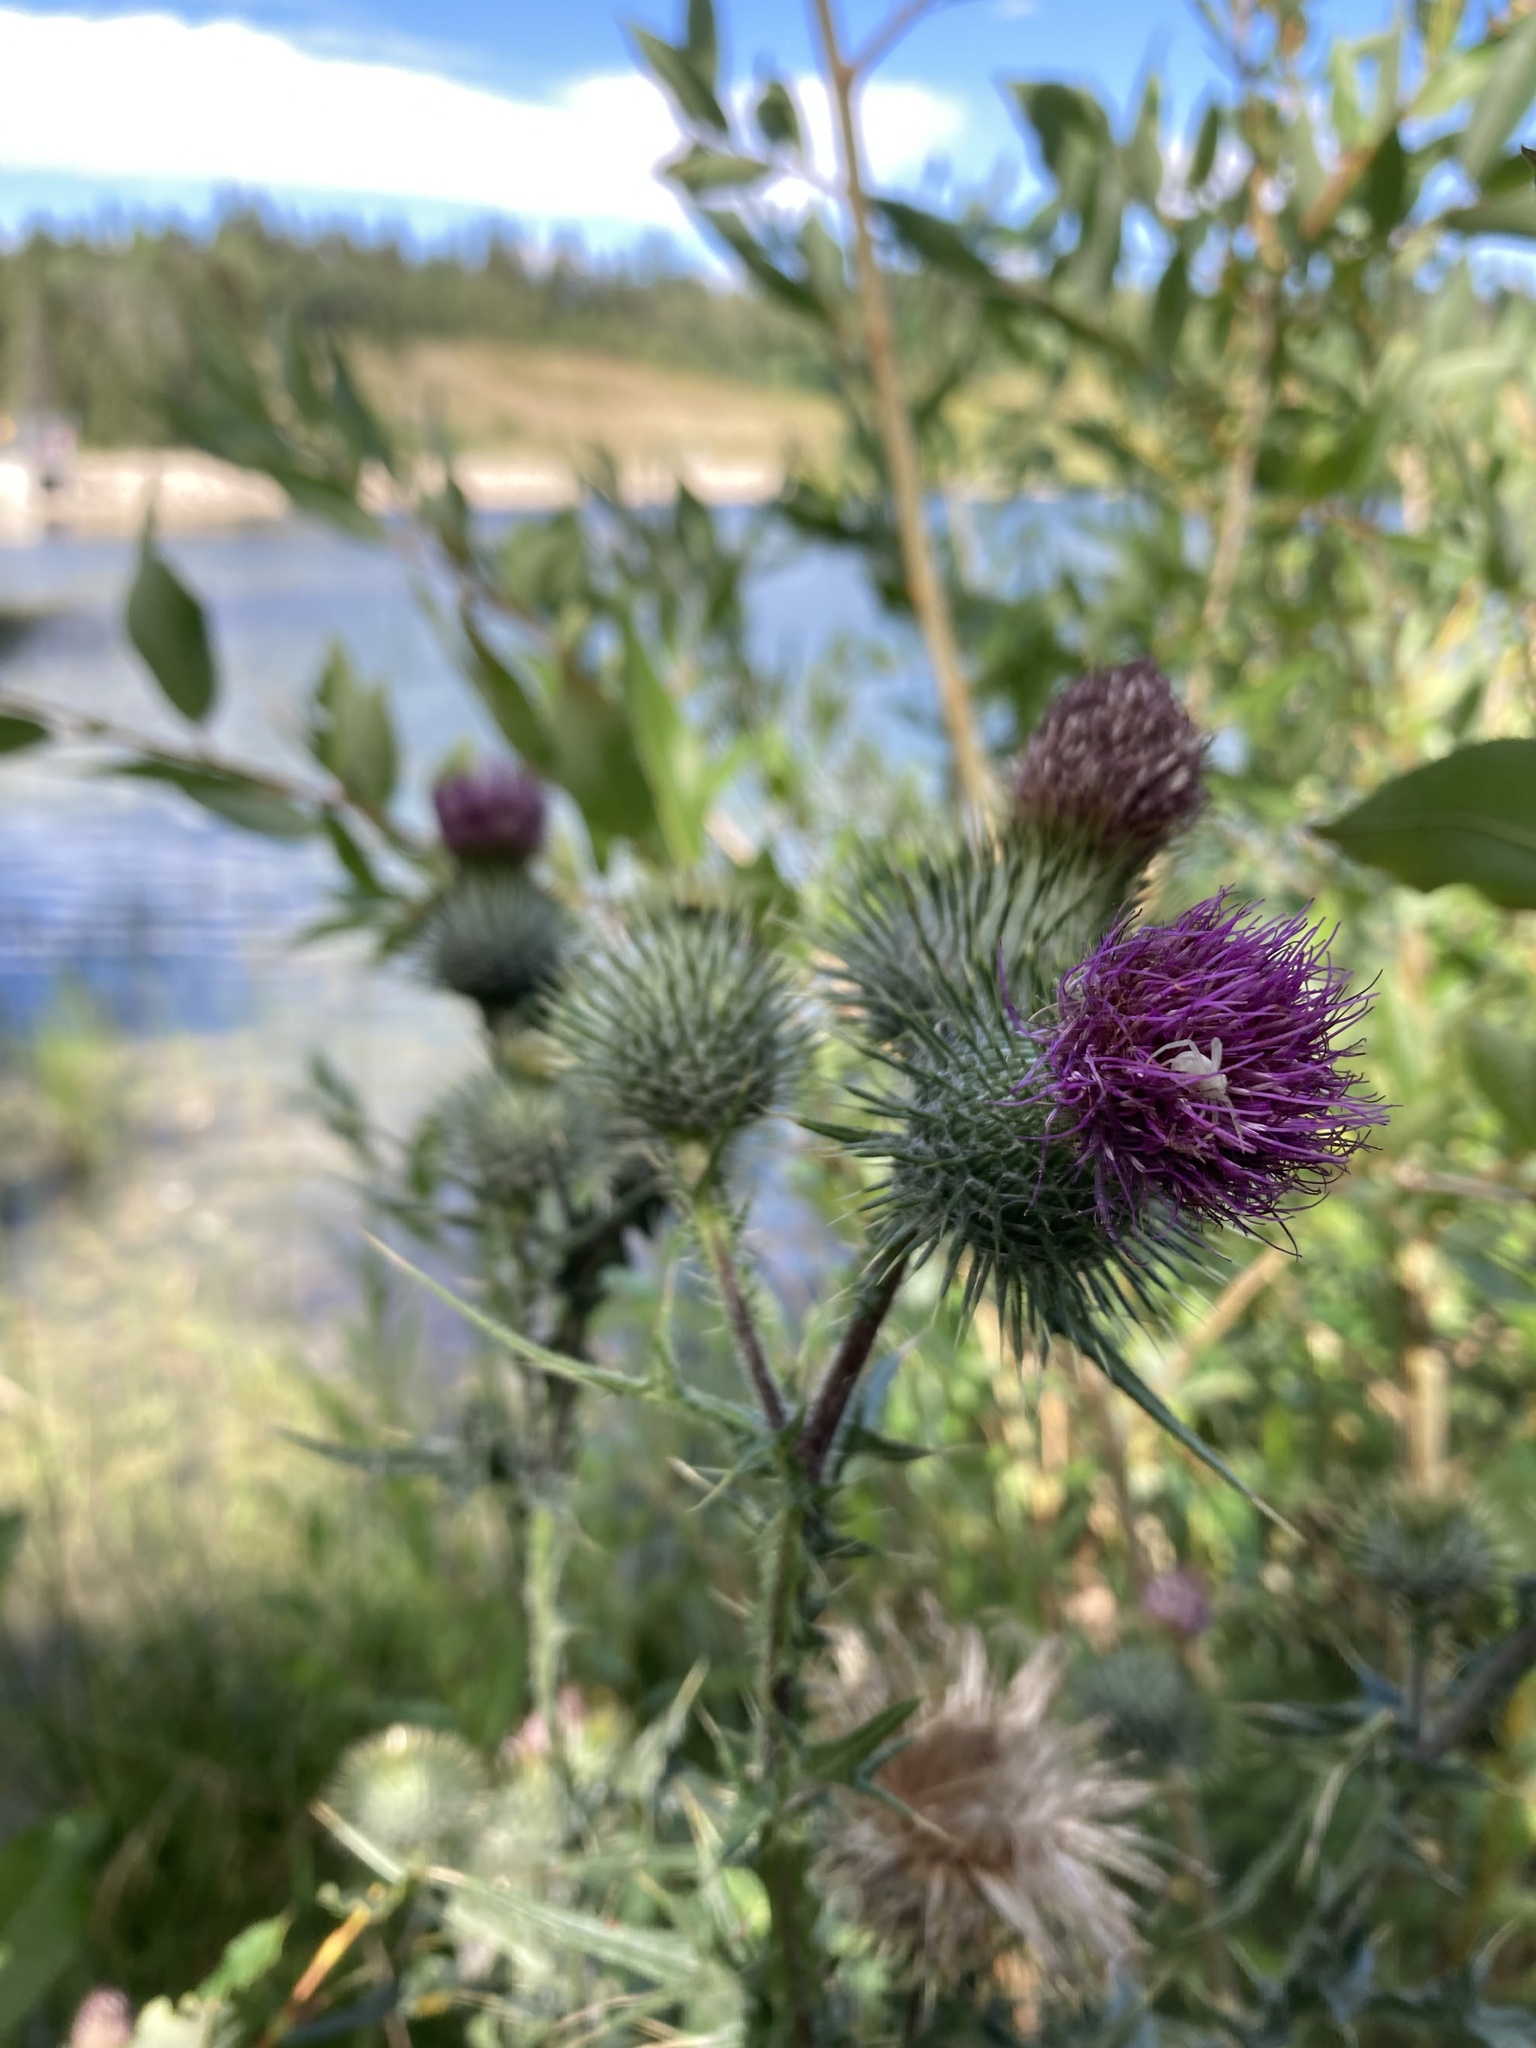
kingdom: Plantae
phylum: Tracheophyta
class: Magnoliopsida
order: Asterales
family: Asteraceae
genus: Cirsium
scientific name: Cirsium vulgare
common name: Bull thistle
